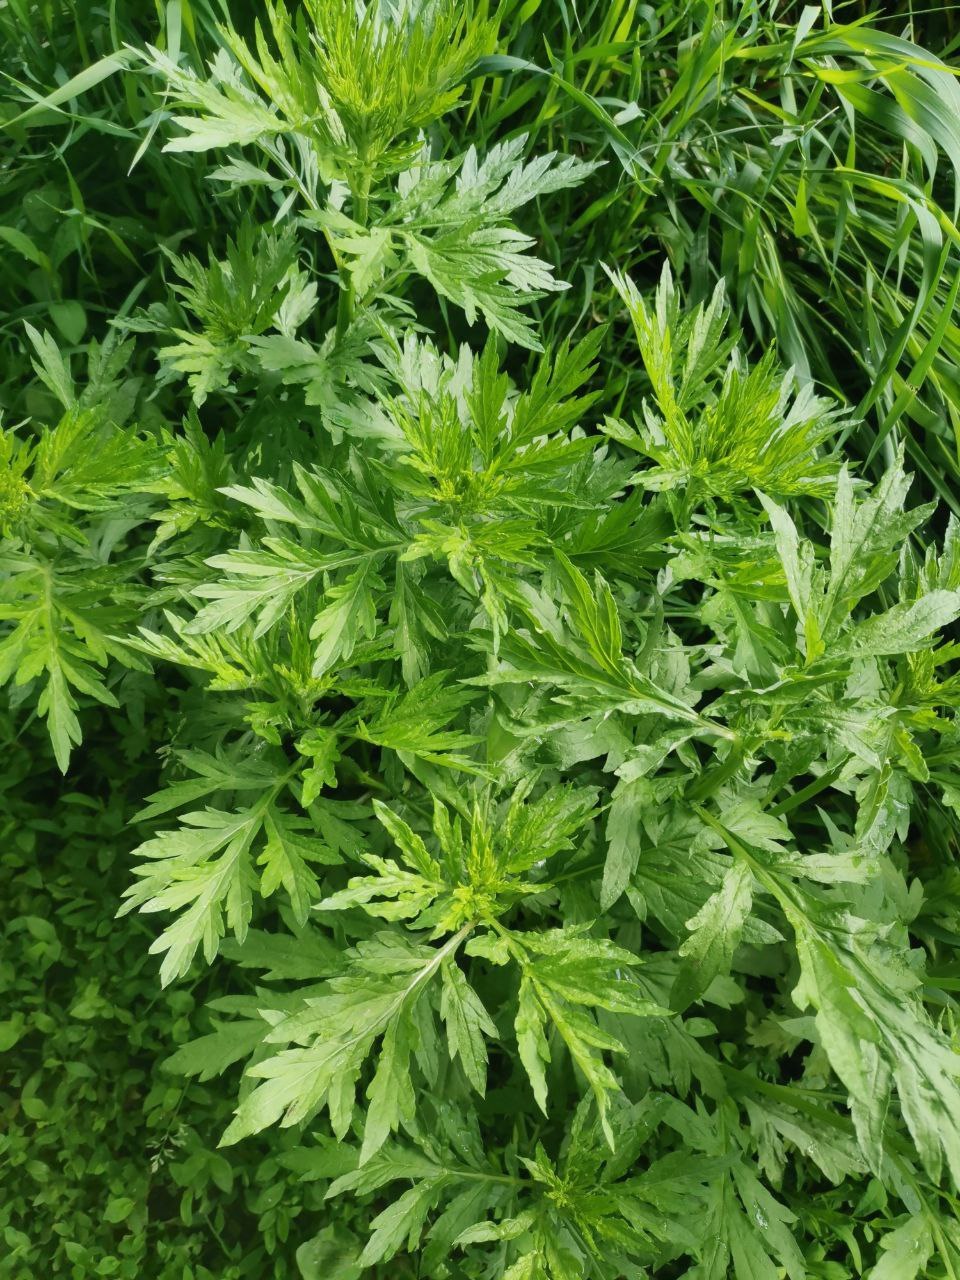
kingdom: Plantae
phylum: Tracheophyta
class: Magnoliopsida
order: Asterales
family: Asteraceae
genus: Artemisia
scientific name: Artemisia vulgaris
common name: Mugwort
